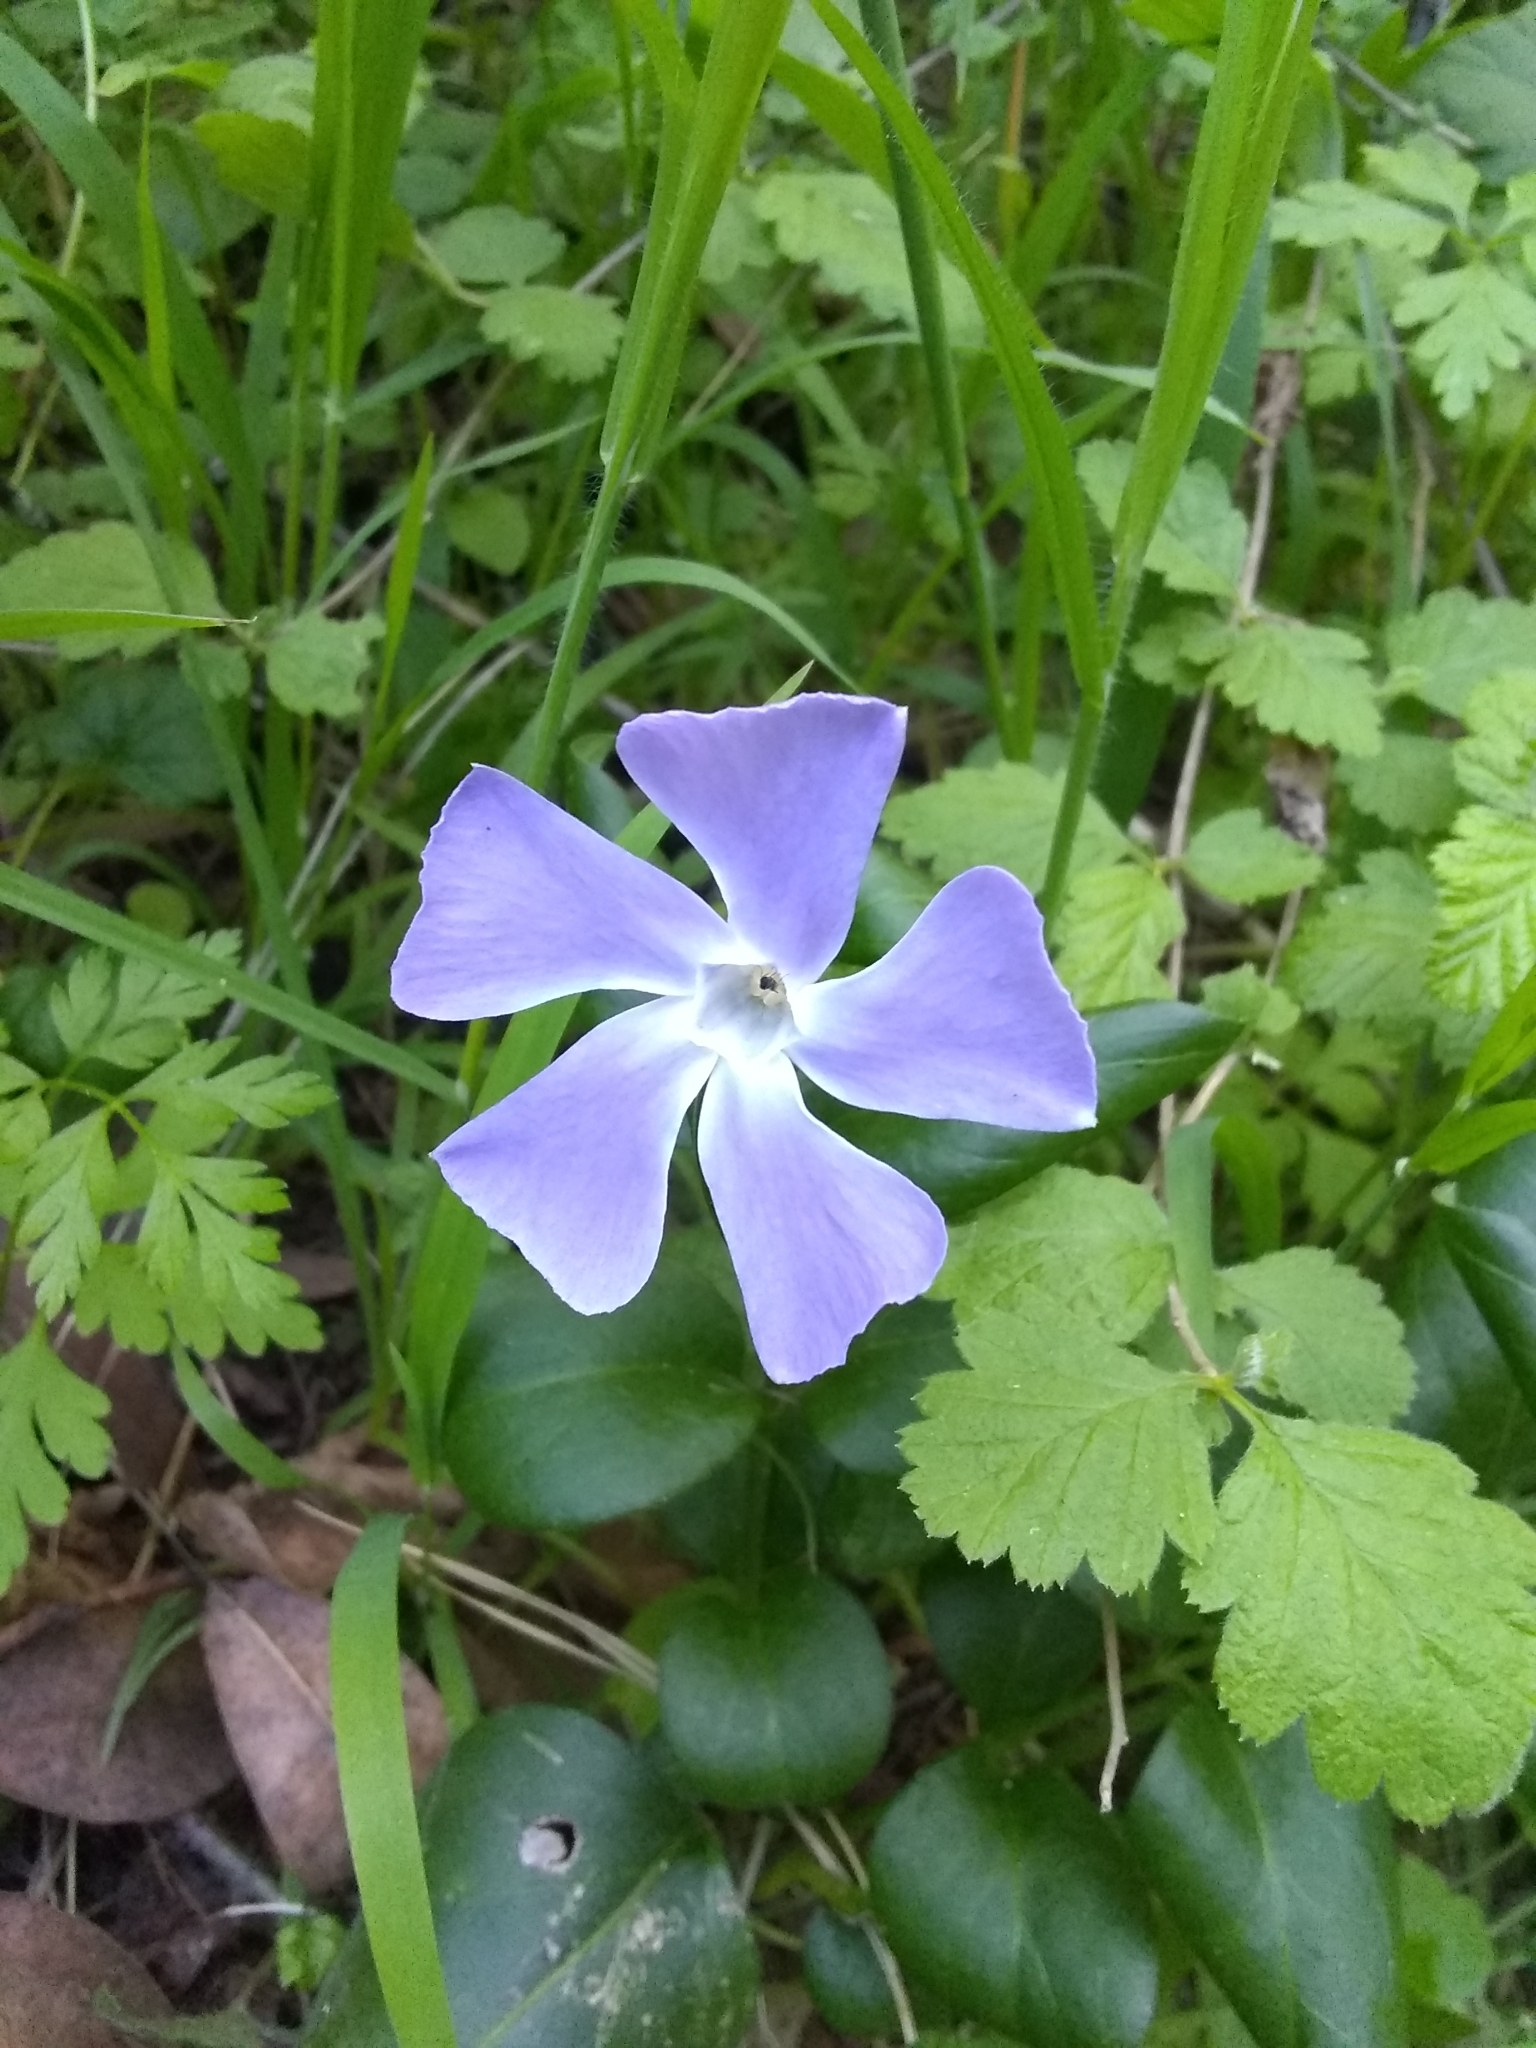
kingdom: Plantae
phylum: Tracheophyta
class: Magnoliopsida
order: Gentianales
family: Apocynaceae
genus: Vinca
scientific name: Vinca major
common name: Greater periwinkle
